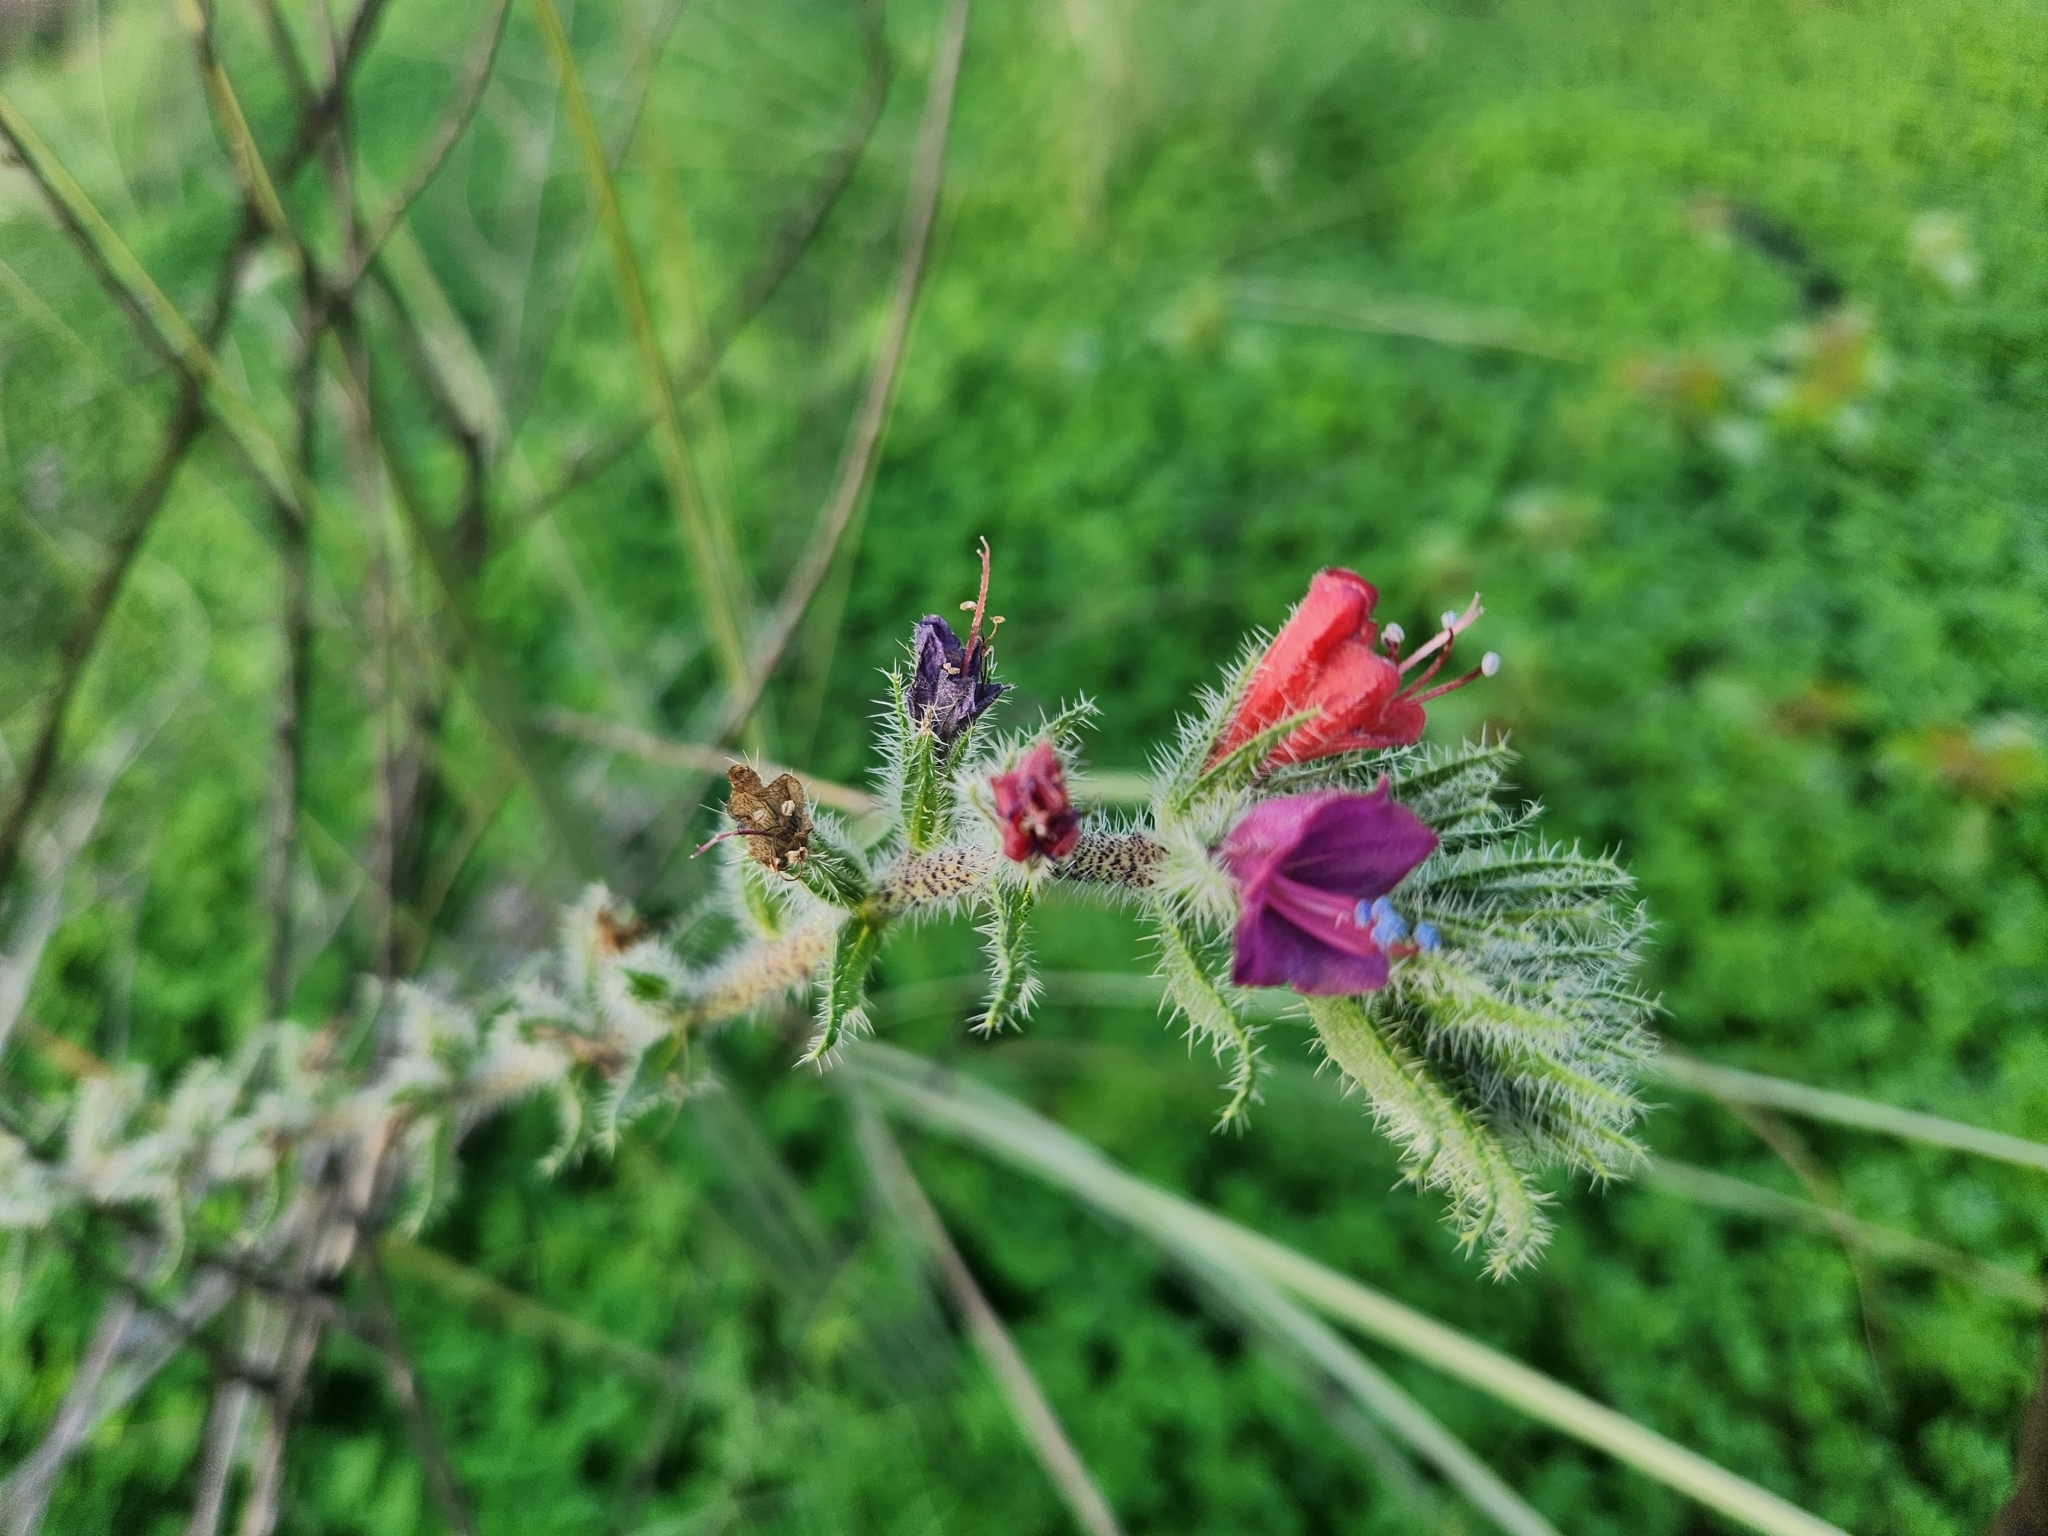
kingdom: Plantae
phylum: Tracheophyta
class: Magnoliopsida
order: Boraginales
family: Boraginaceae
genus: Echium
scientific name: Echium angustifolium
